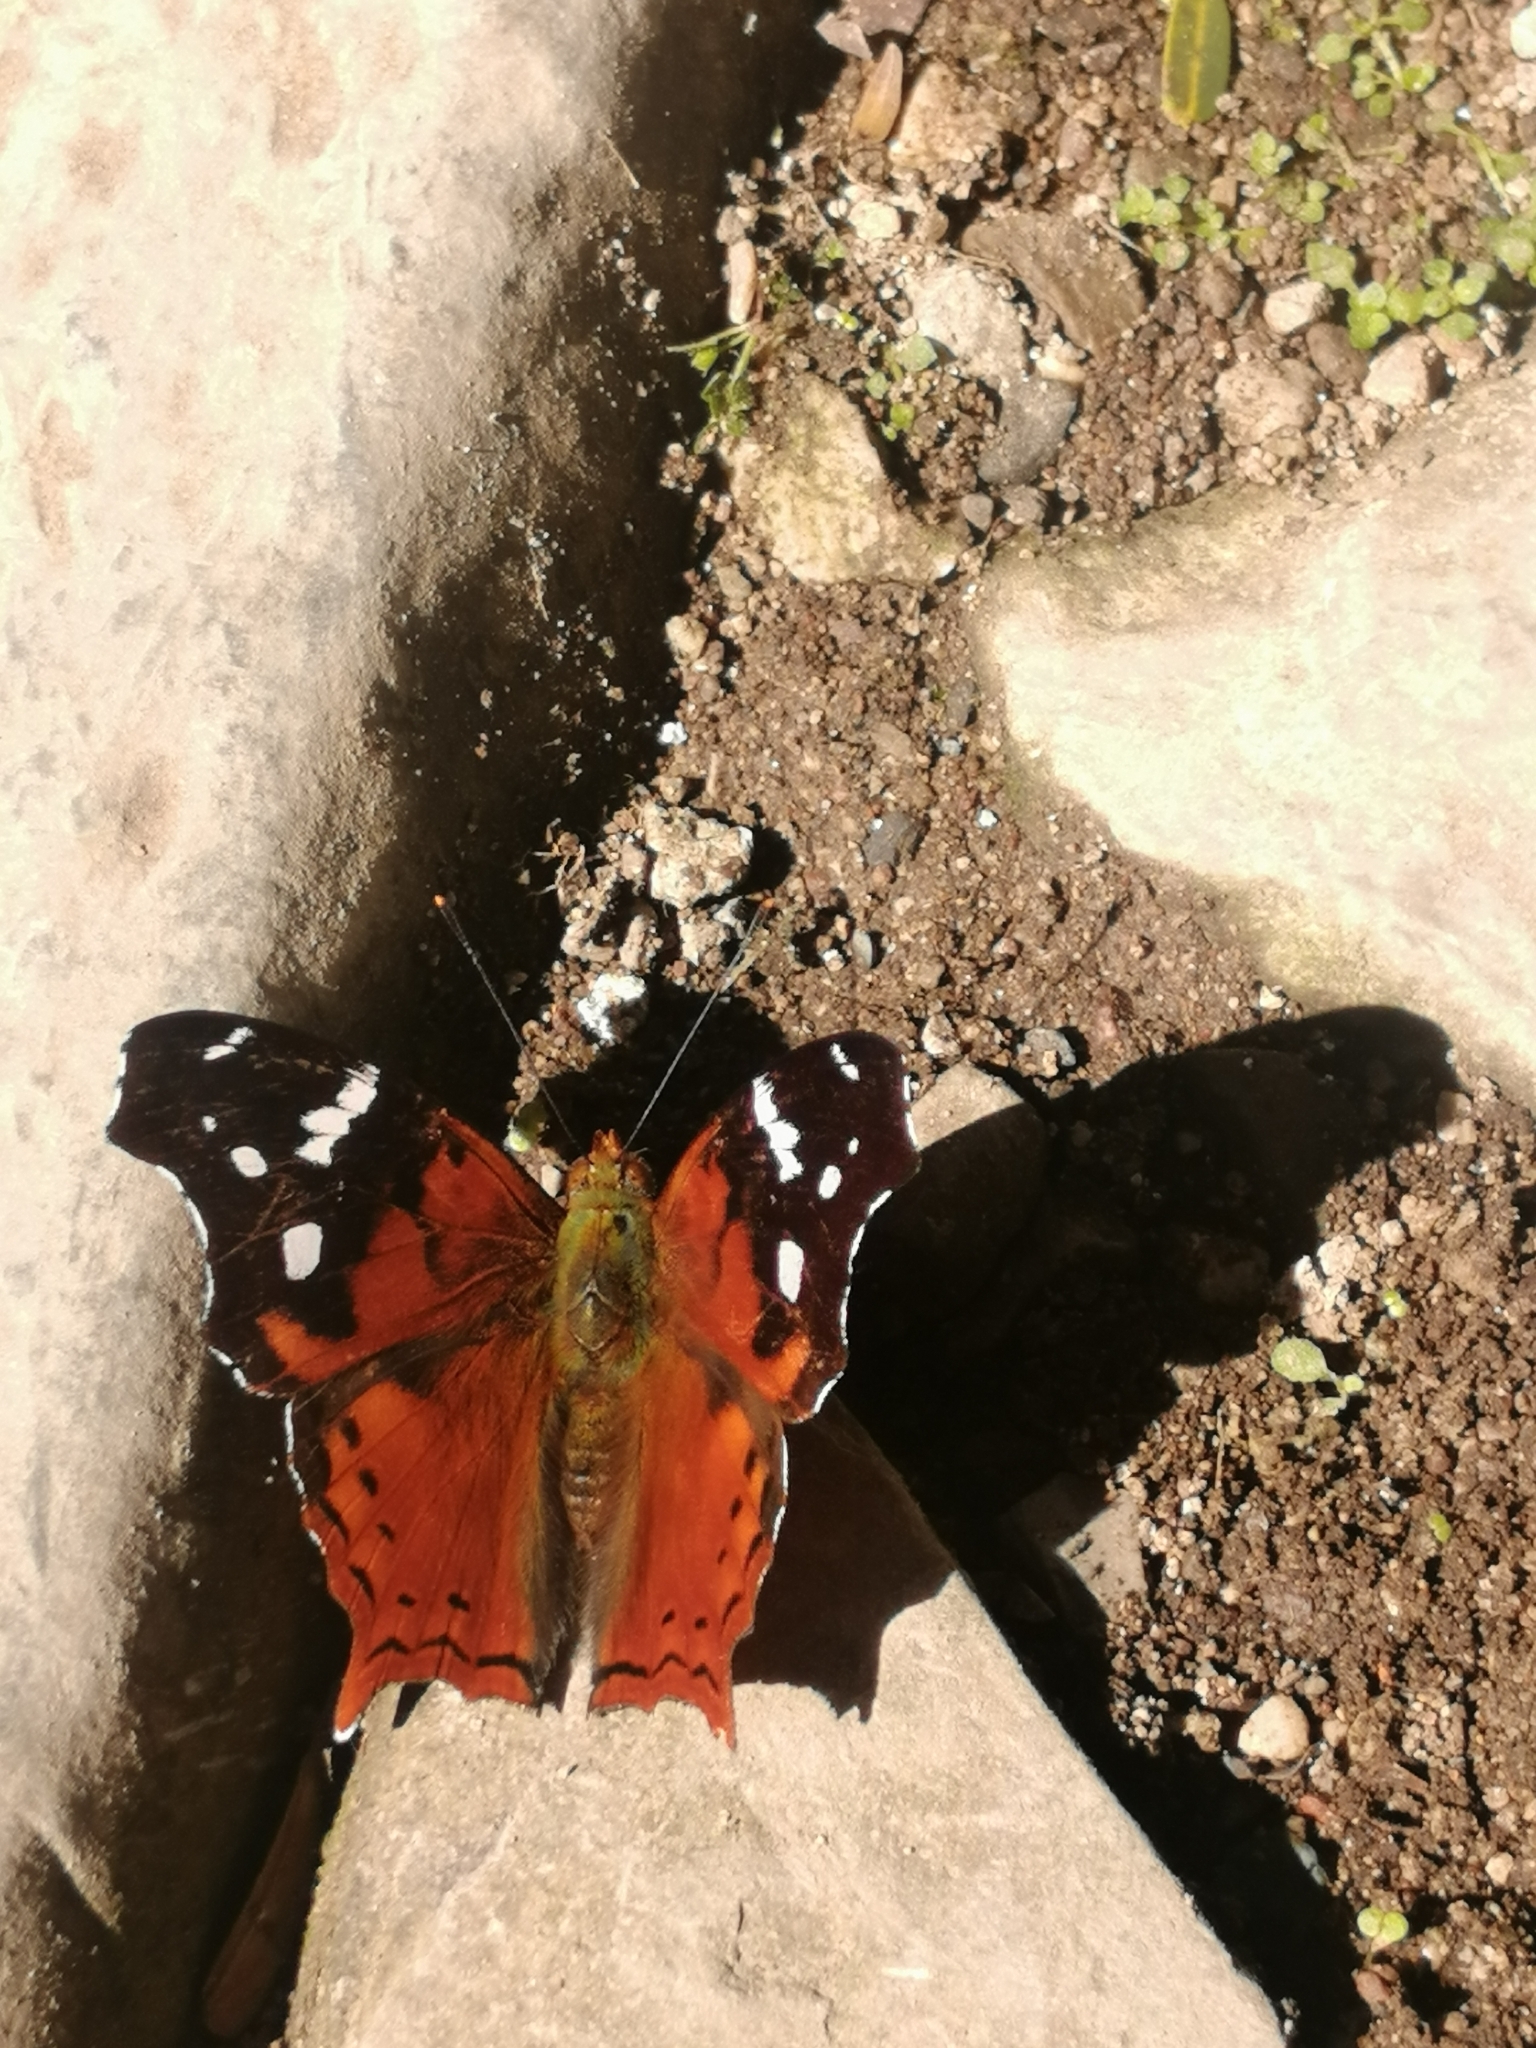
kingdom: Animalia
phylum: Arthropoda
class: Insecta
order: Lepidoptera
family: Nymphalidae
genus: Hypanartia
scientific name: Hypanartia trimaculata
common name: Reddish mapwing
